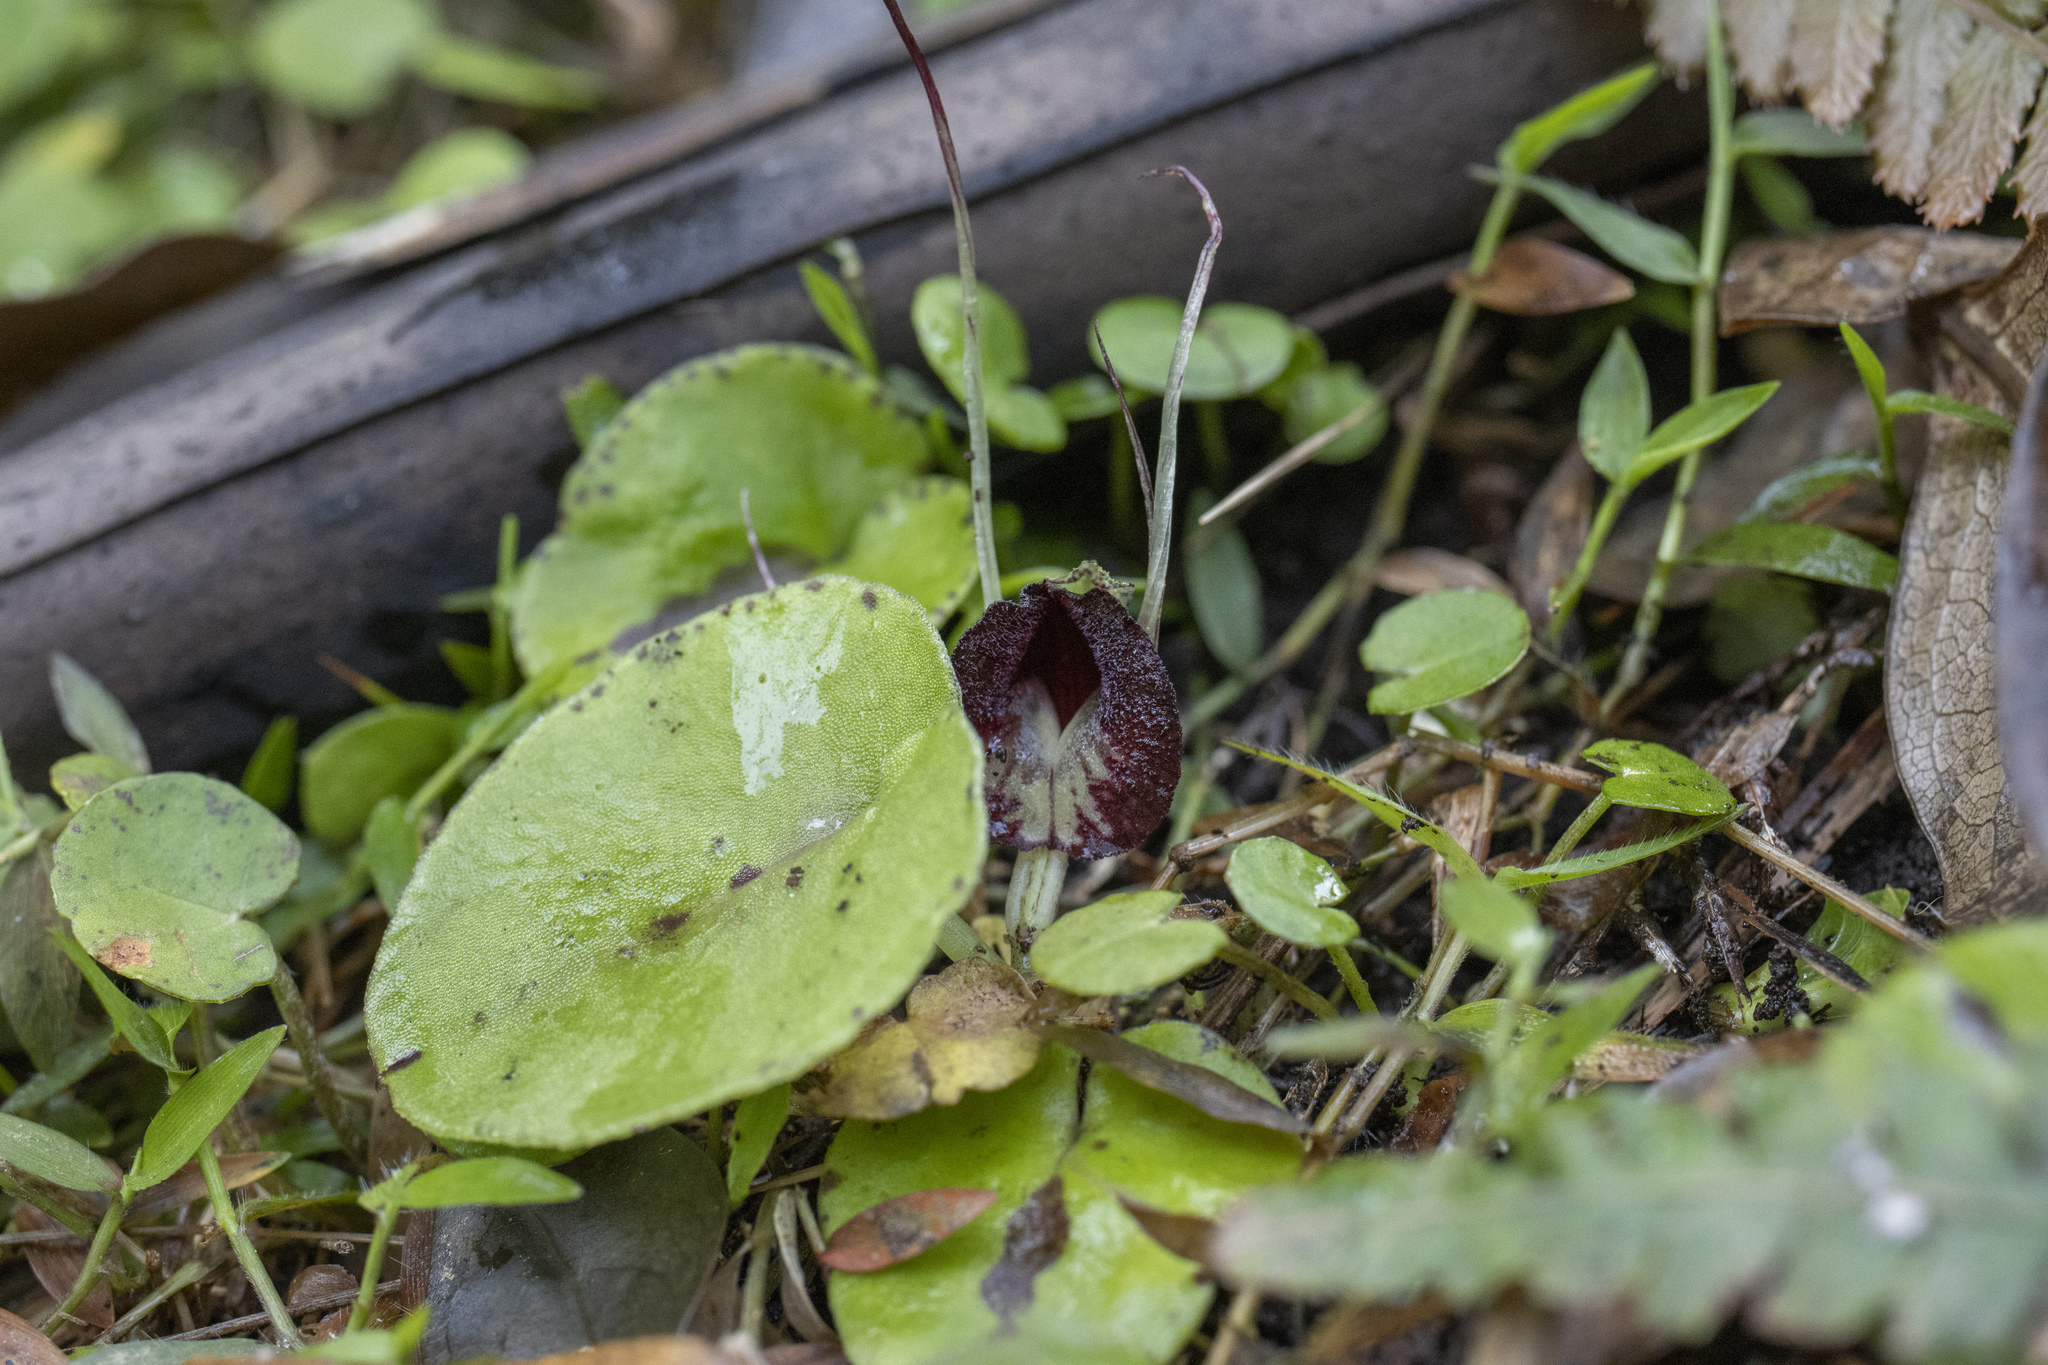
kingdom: Plantae
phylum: Tracheophyta
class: Liliopsida
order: Asparagales
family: Orchidaceae
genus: Corybas
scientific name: Corybas macranthus
